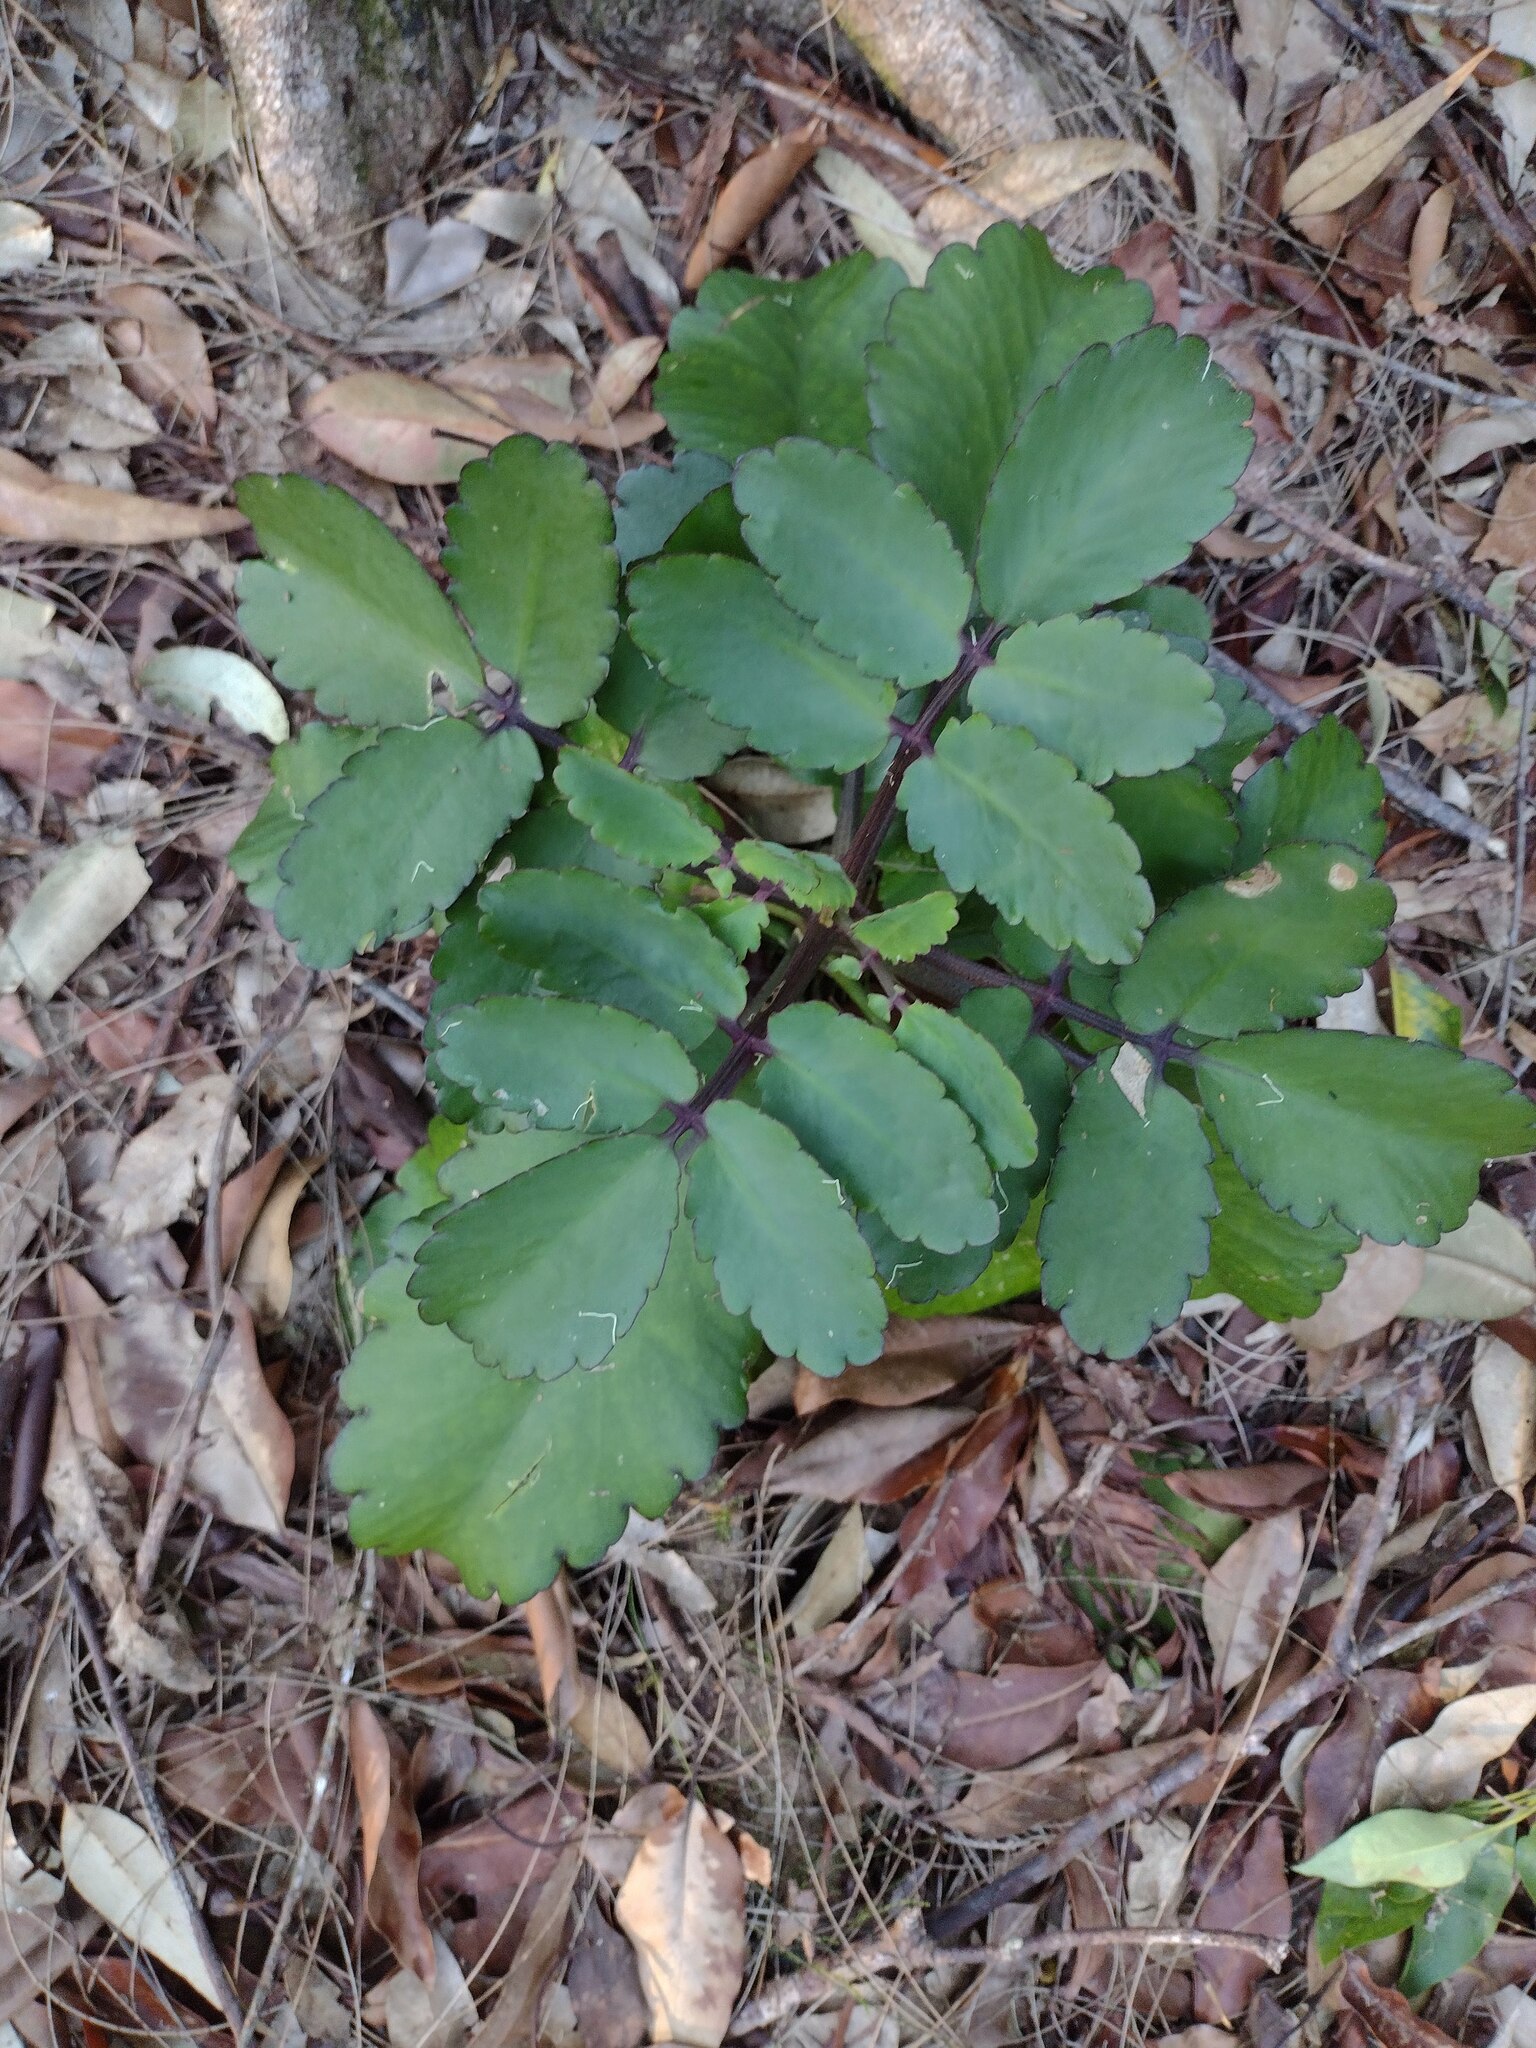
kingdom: Plantae
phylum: Tracheophyta
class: Magnoliopsida
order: Saxifragales
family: Crassulaceae
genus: Kalanchoe
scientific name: Kalanchoe pinnata
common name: Cathedral bells
